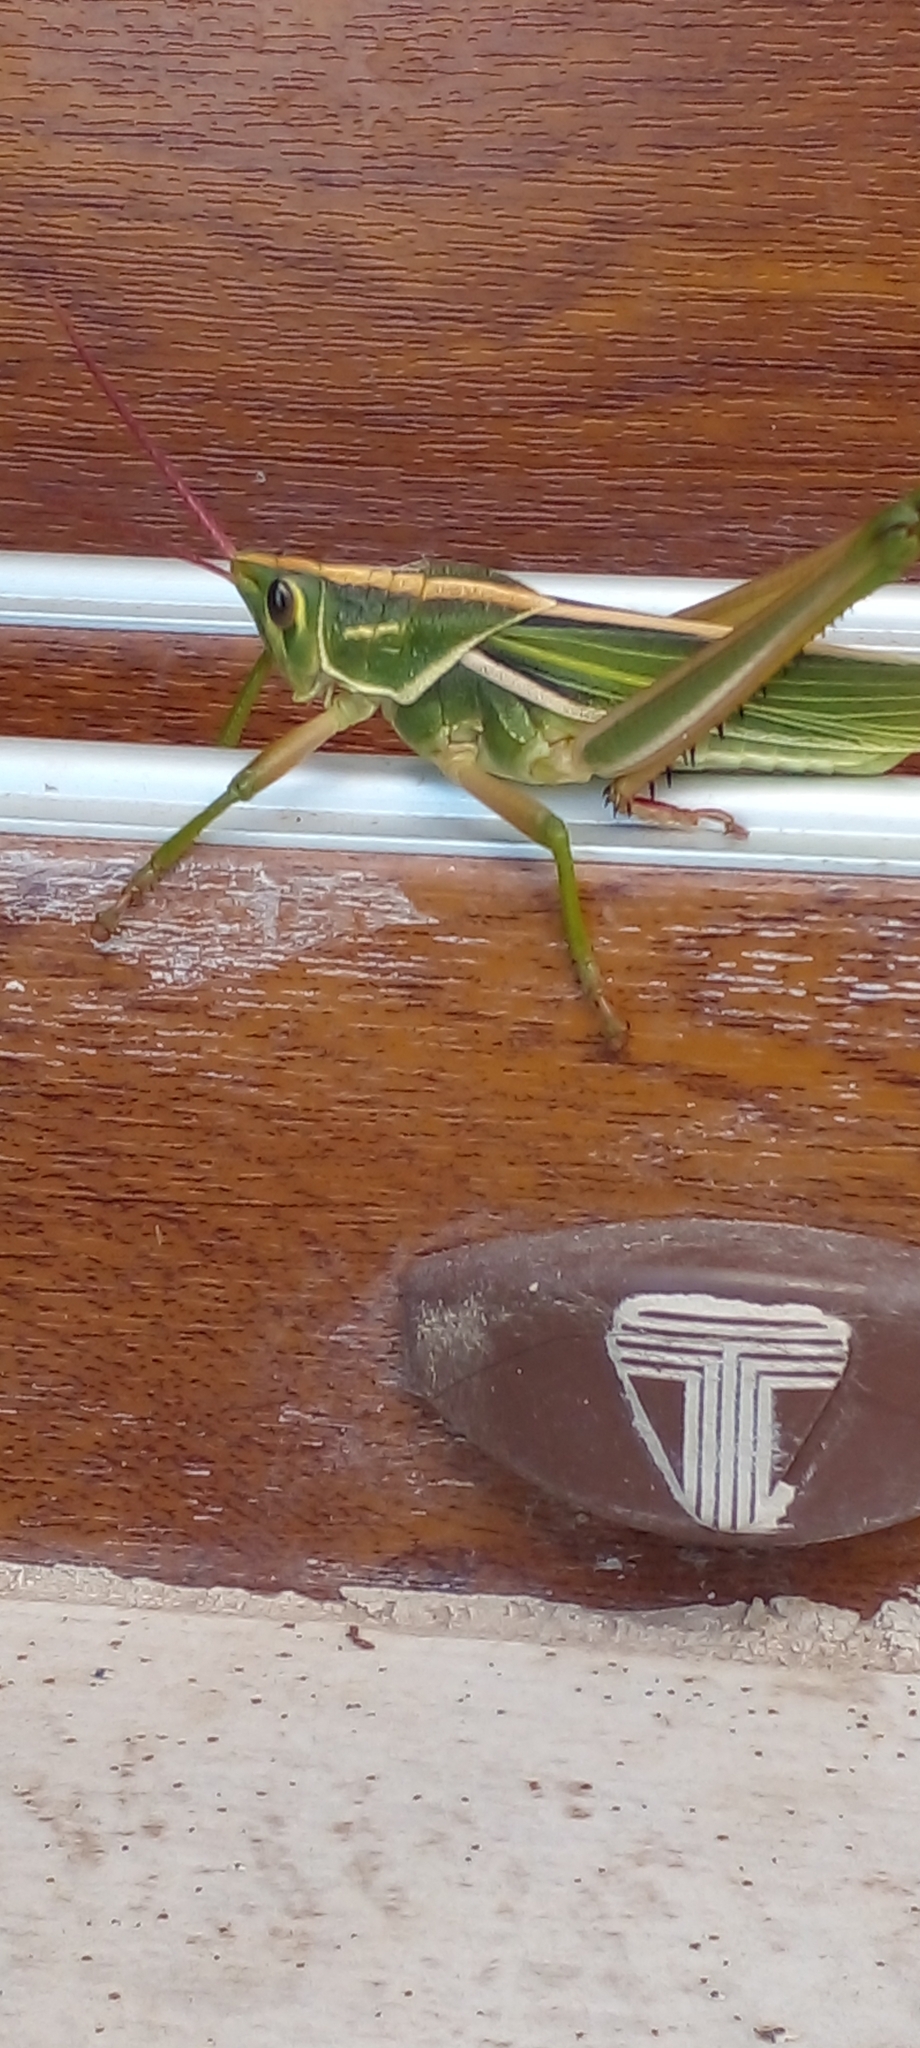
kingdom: Animalia
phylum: Arthropoda
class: Insecta
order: Orthoptera
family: Romaleidae
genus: Staleochlora
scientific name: Staleochlora viridicata
